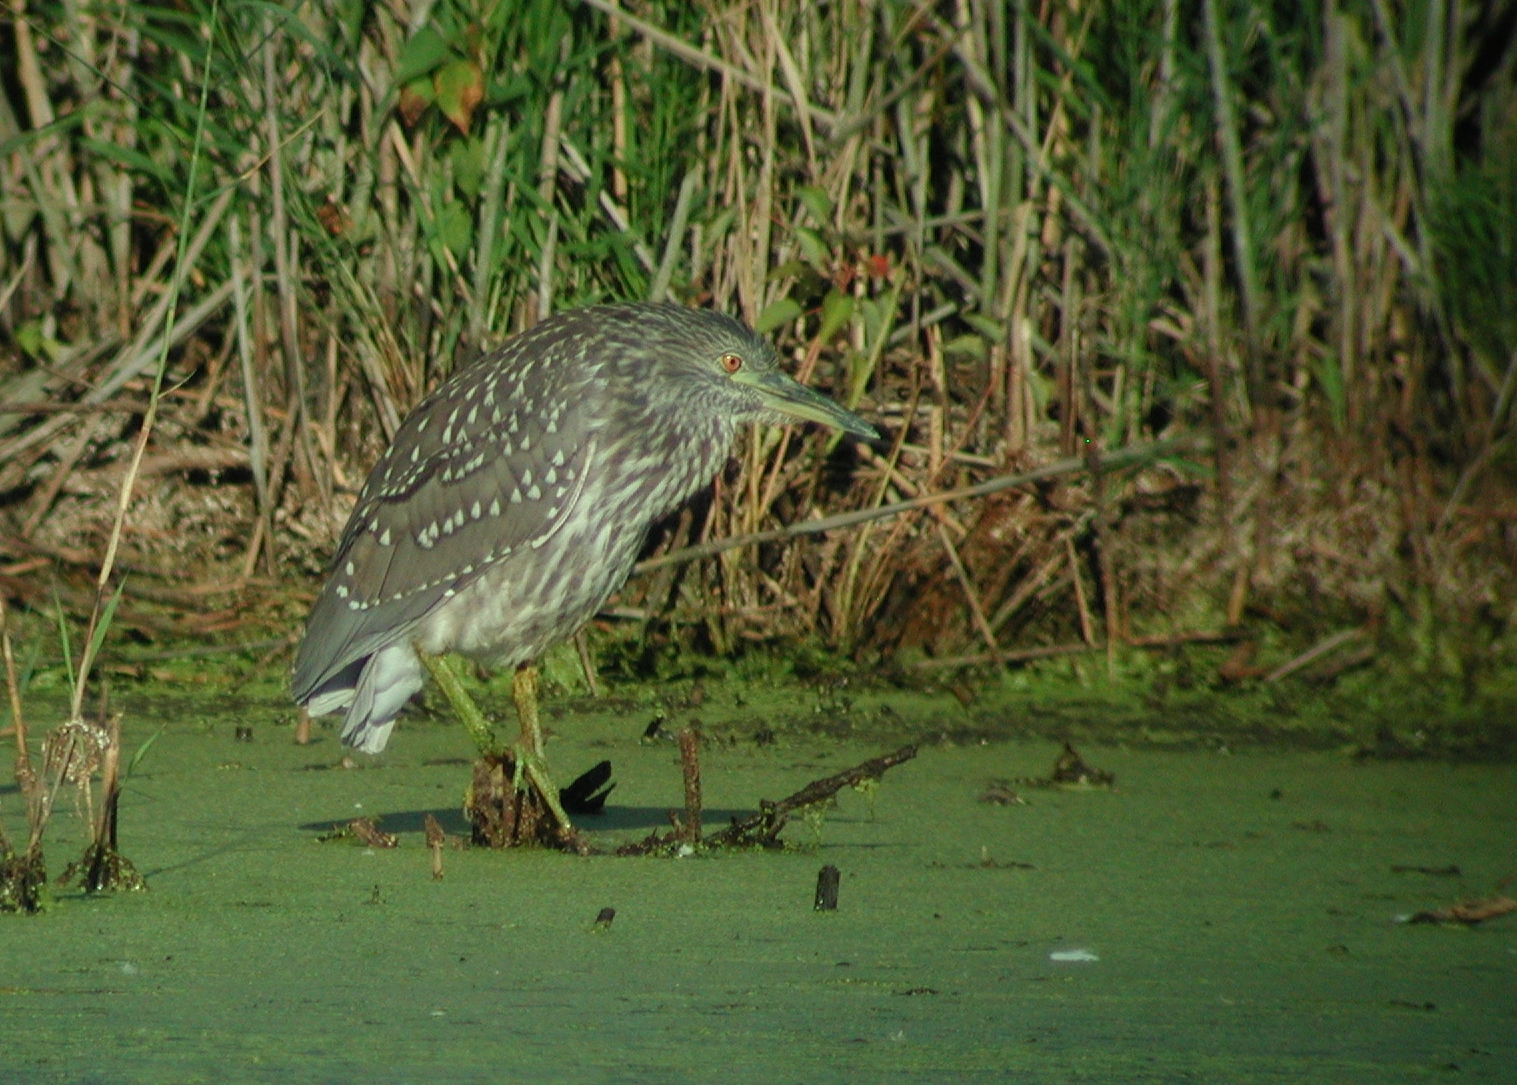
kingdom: Animalia
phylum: Chordata
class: Aves
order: Pelecaniformes
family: Ardeidae
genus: Nycticorax
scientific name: Nycticorax nycticorax
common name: Black-crowned night heron
